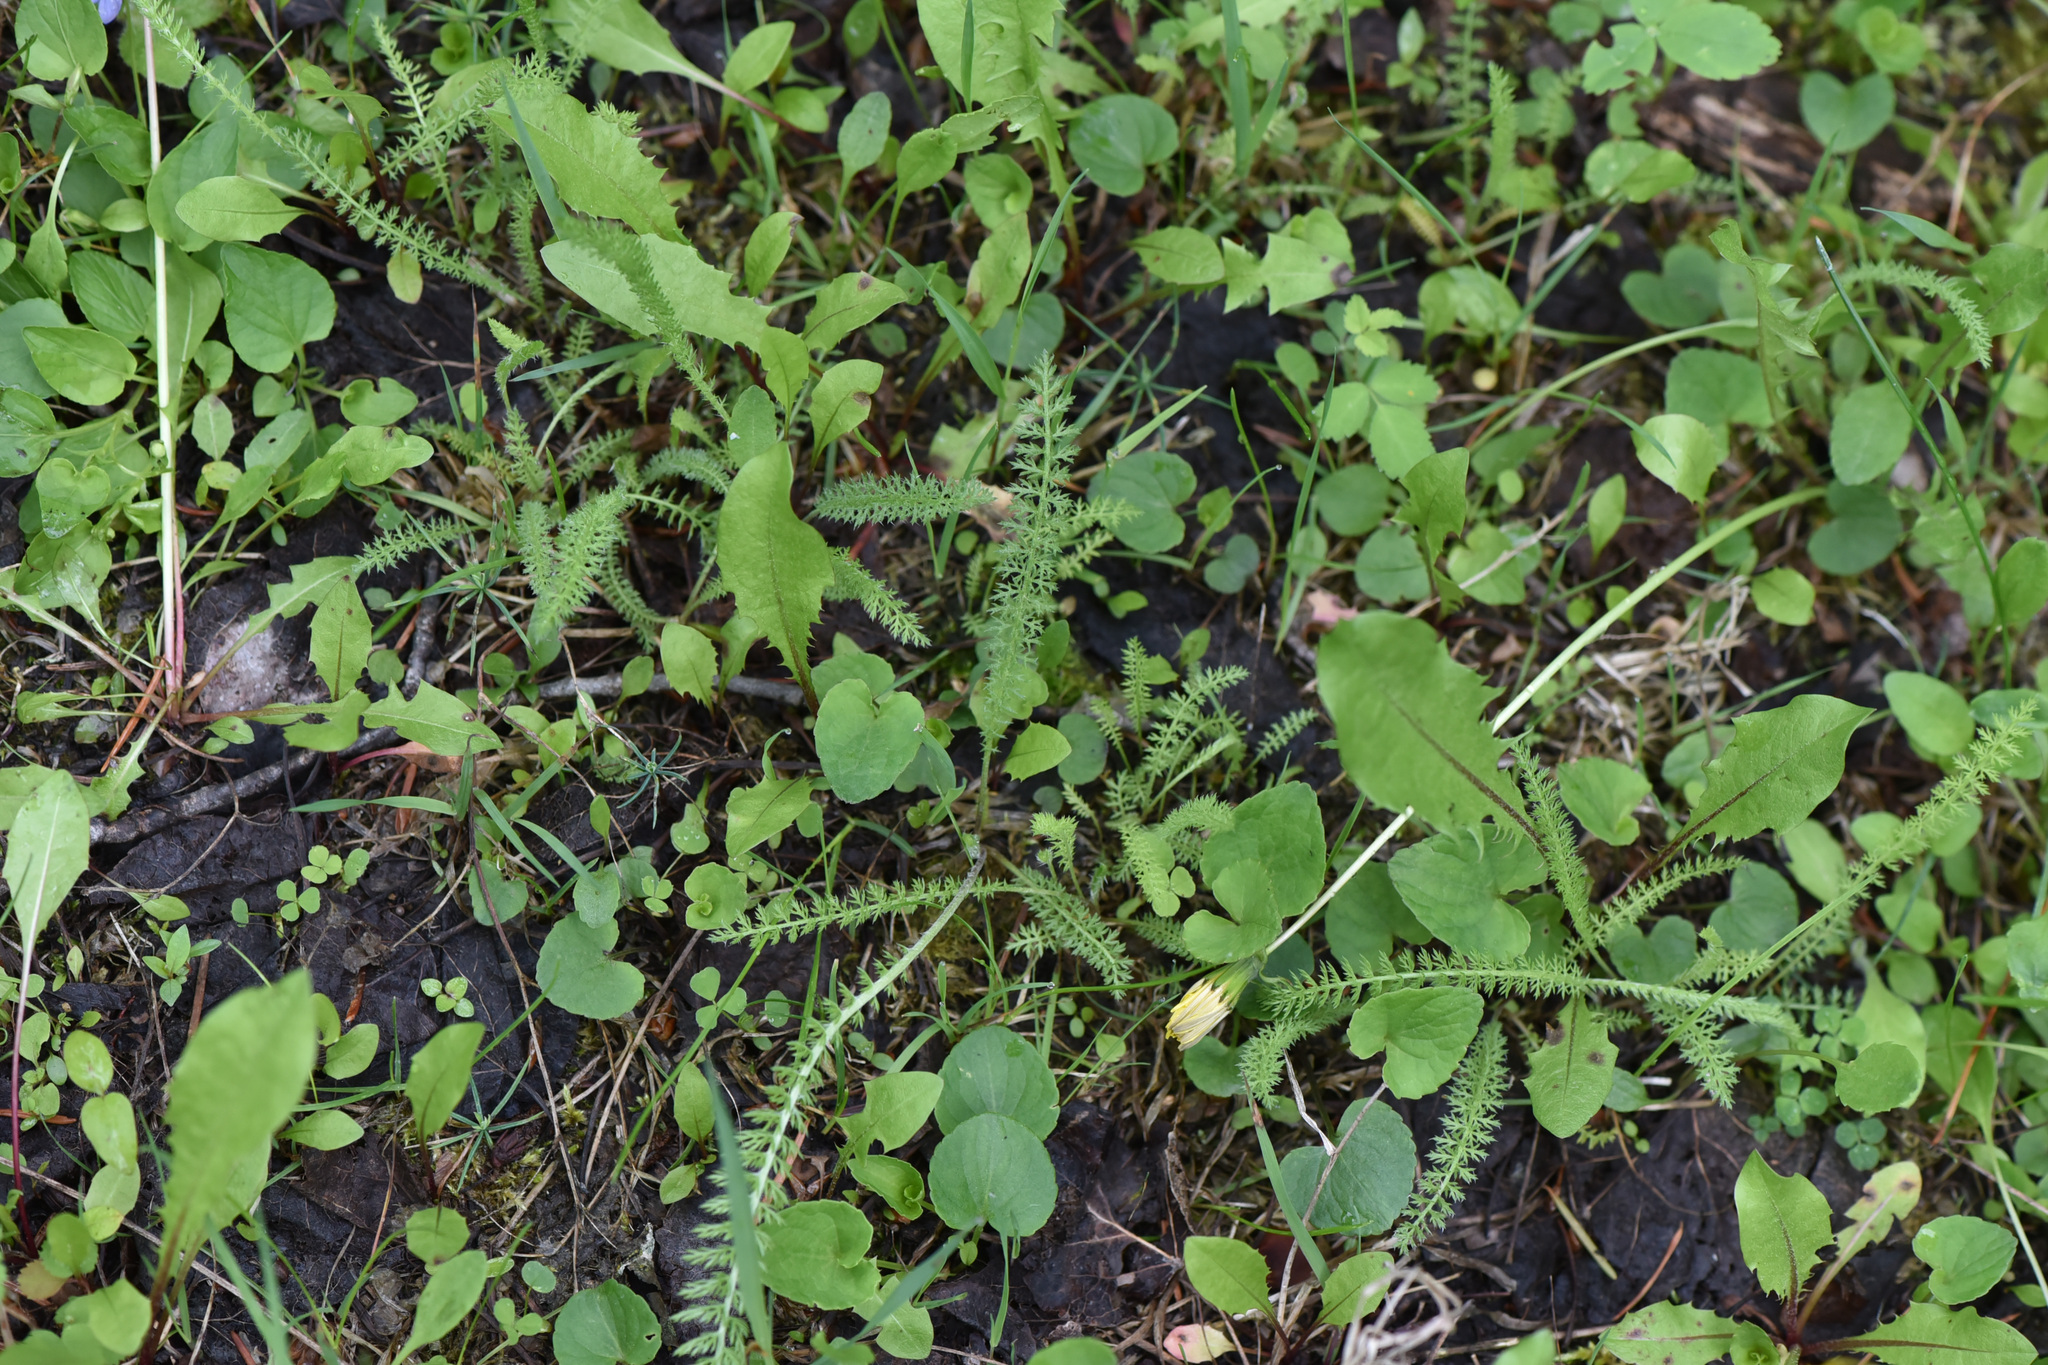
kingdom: Plantae
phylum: Tracheophyta
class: Magnoliopsida
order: Asterales
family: Asteraceae
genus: Achillea
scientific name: Achillea millefolium
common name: Yarrow
